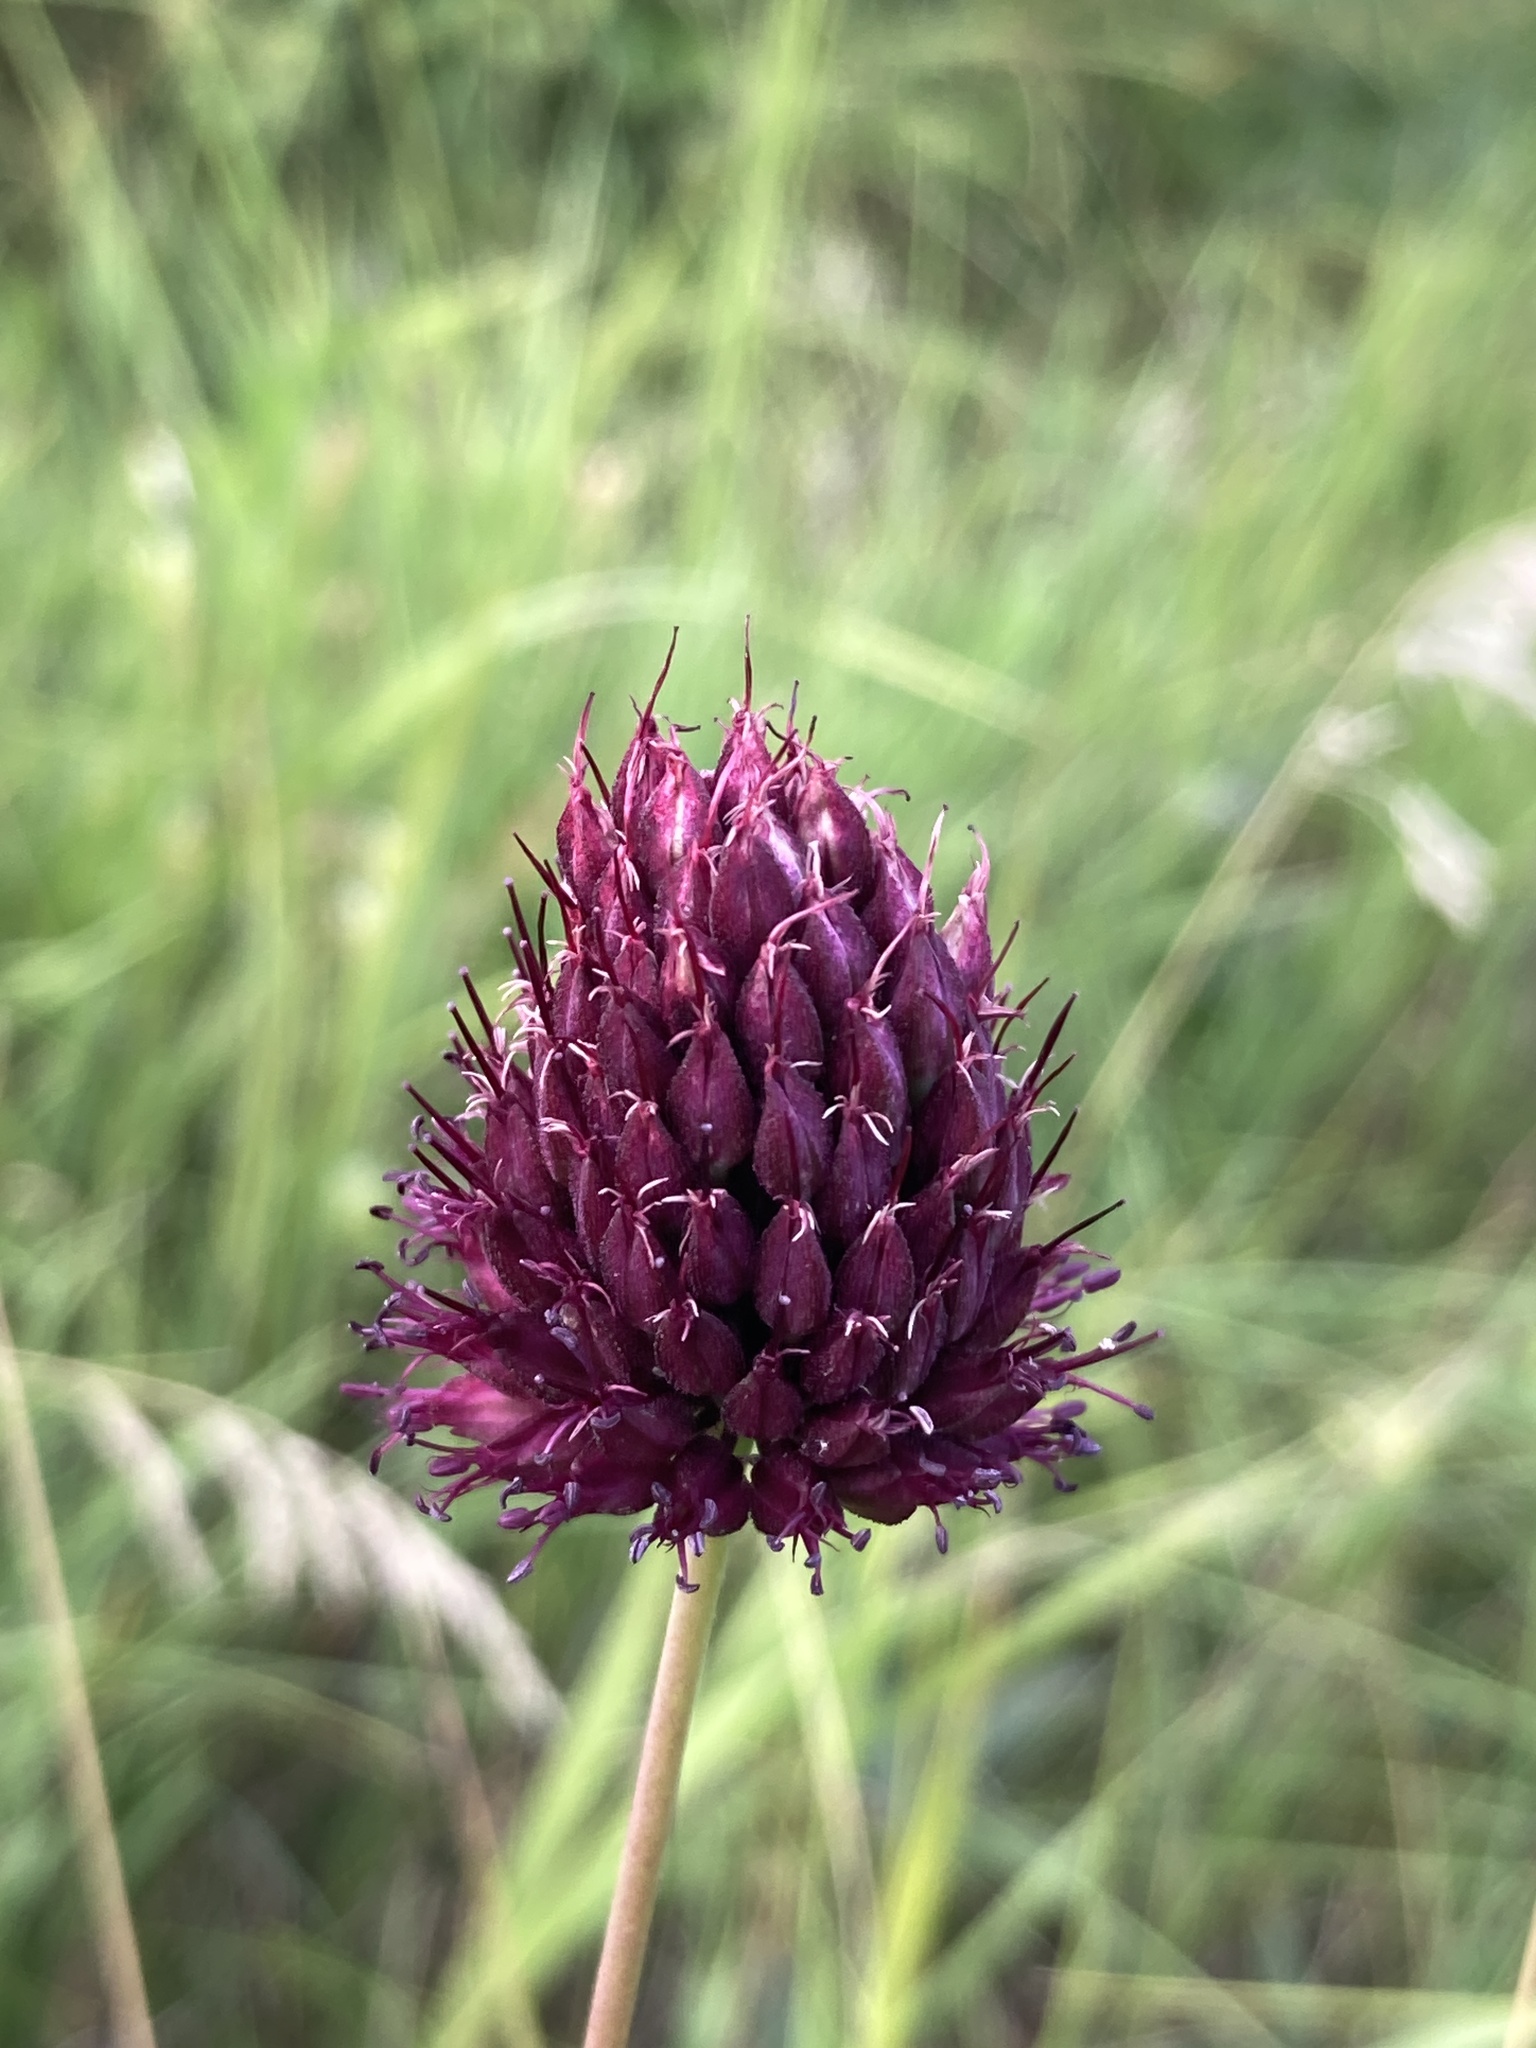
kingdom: Plantae
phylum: Tracheophyta
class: Liliopsida
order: Asparagales
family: Amaryllidaceae
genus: Allium
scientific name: Allium sphaerocephalon
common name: Round-headed leek
